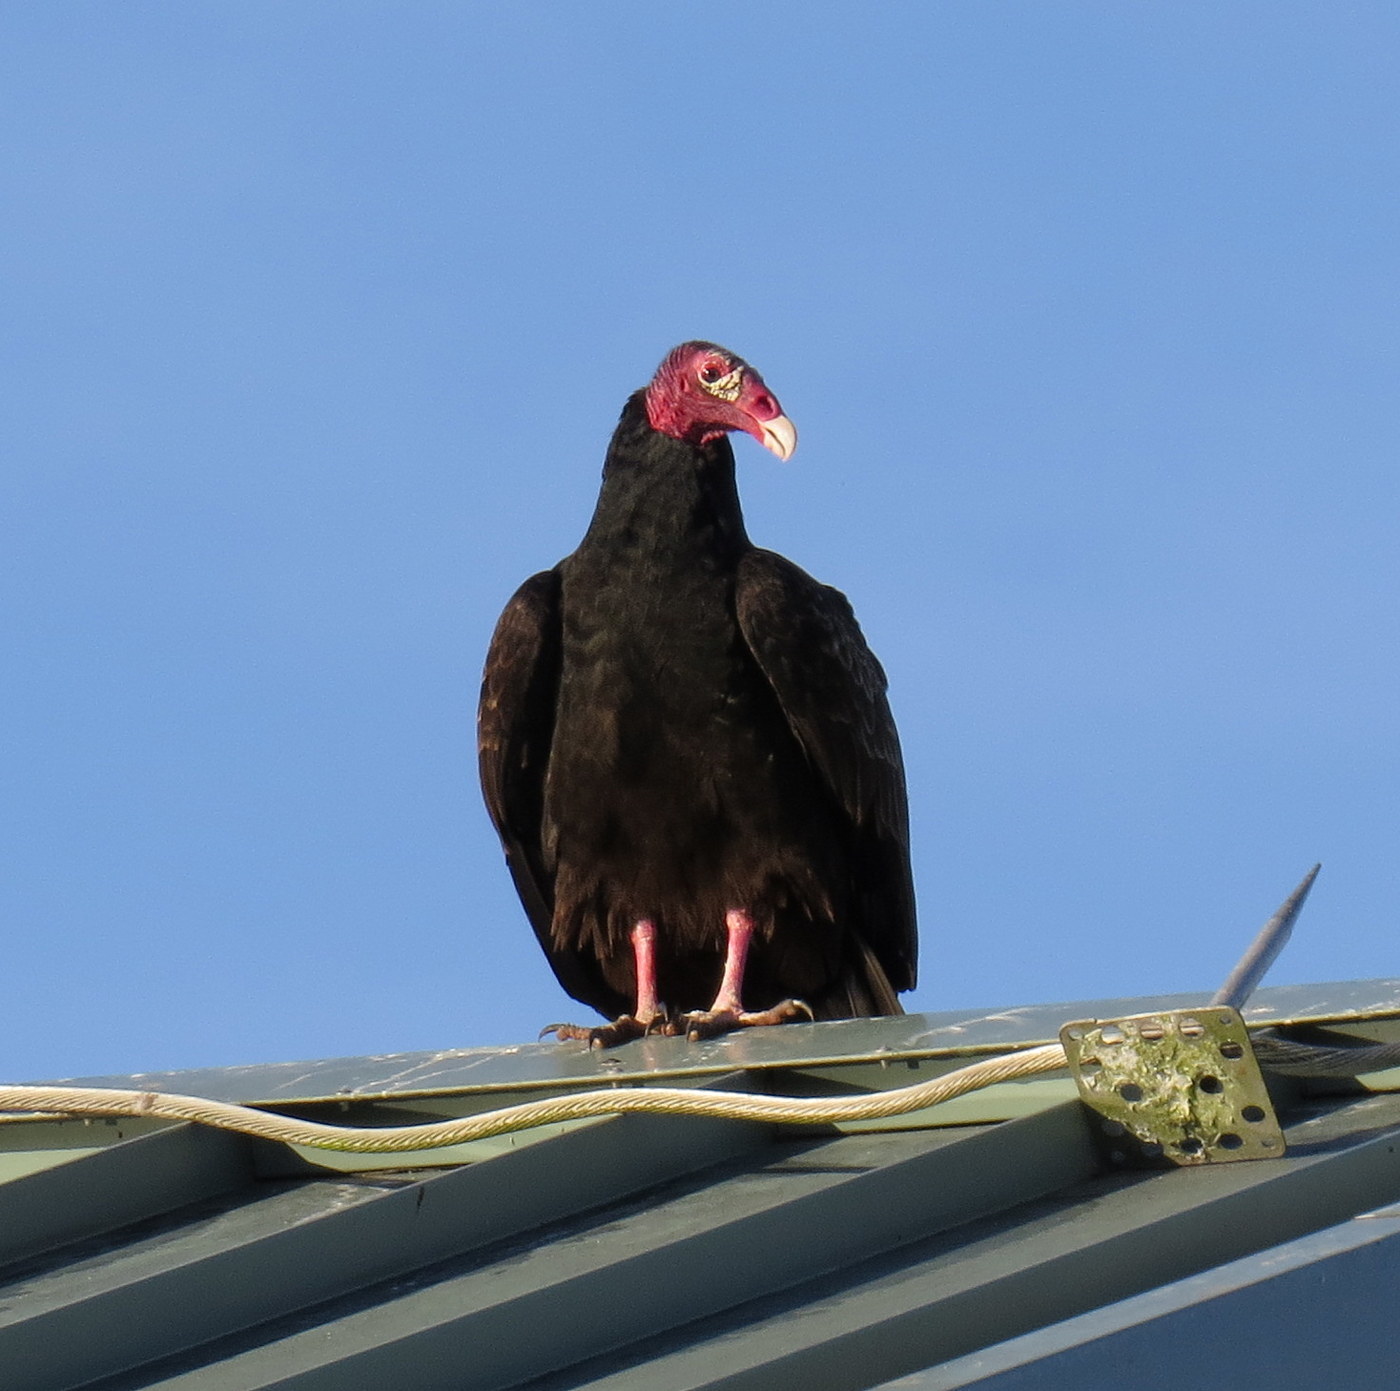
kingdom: Animalia
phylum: Chordata
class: Aves
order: Accipitriformes
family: Cathartidae
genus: Cathartes
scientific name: Cathartes aura
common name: Turkey vulture
